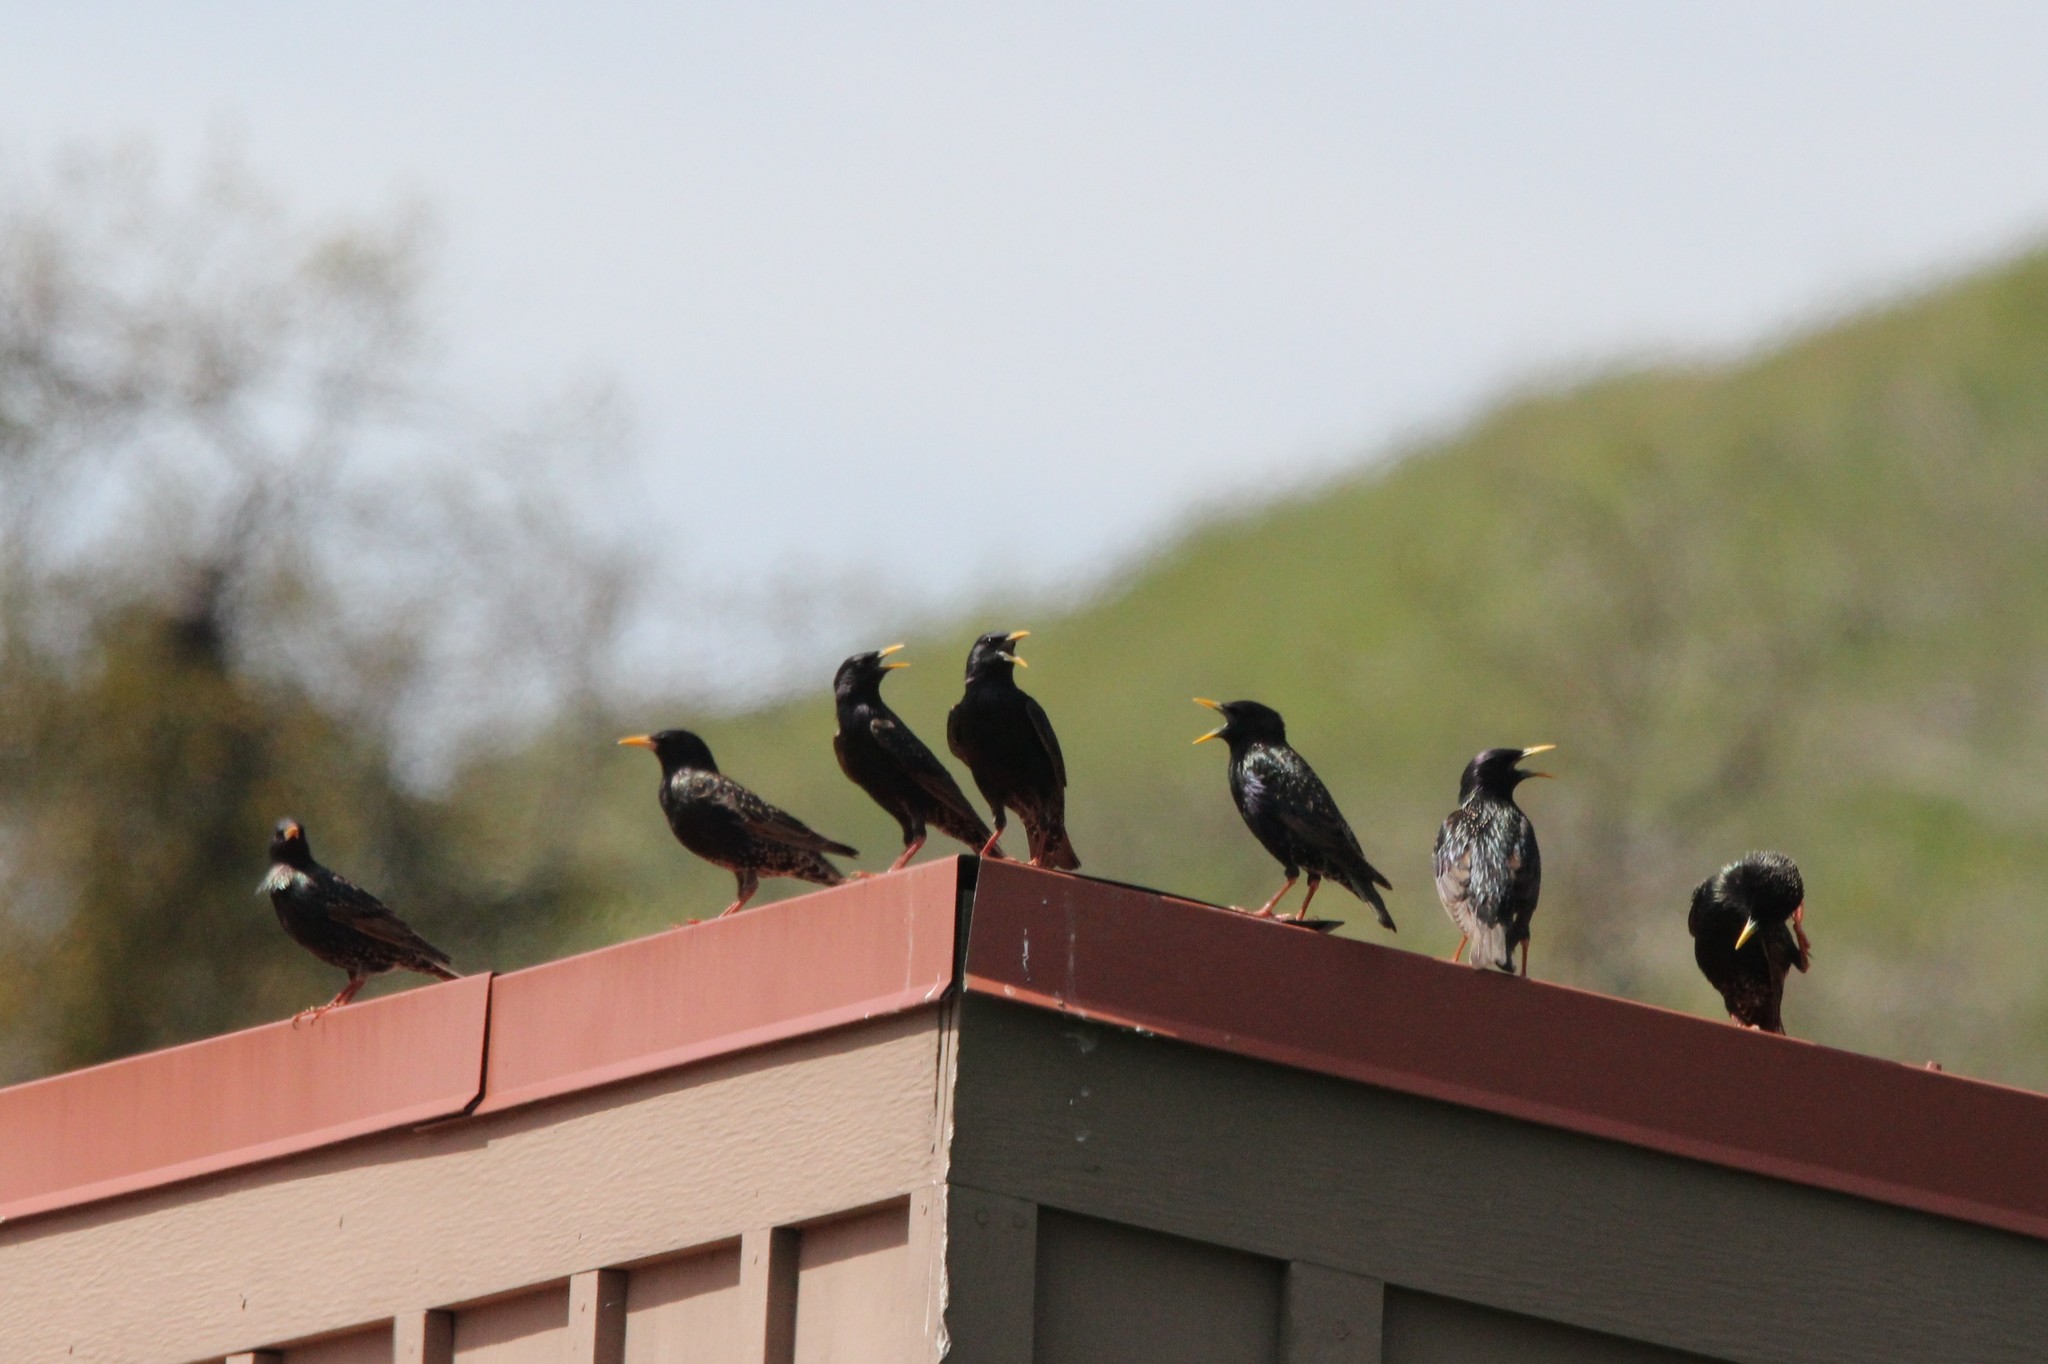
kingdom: Animalia
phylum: Chordata
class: Aves
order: Passeriformes
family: Sturnidae
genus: Sturnus
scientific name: Sturnus vulgaris
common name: Common starling
